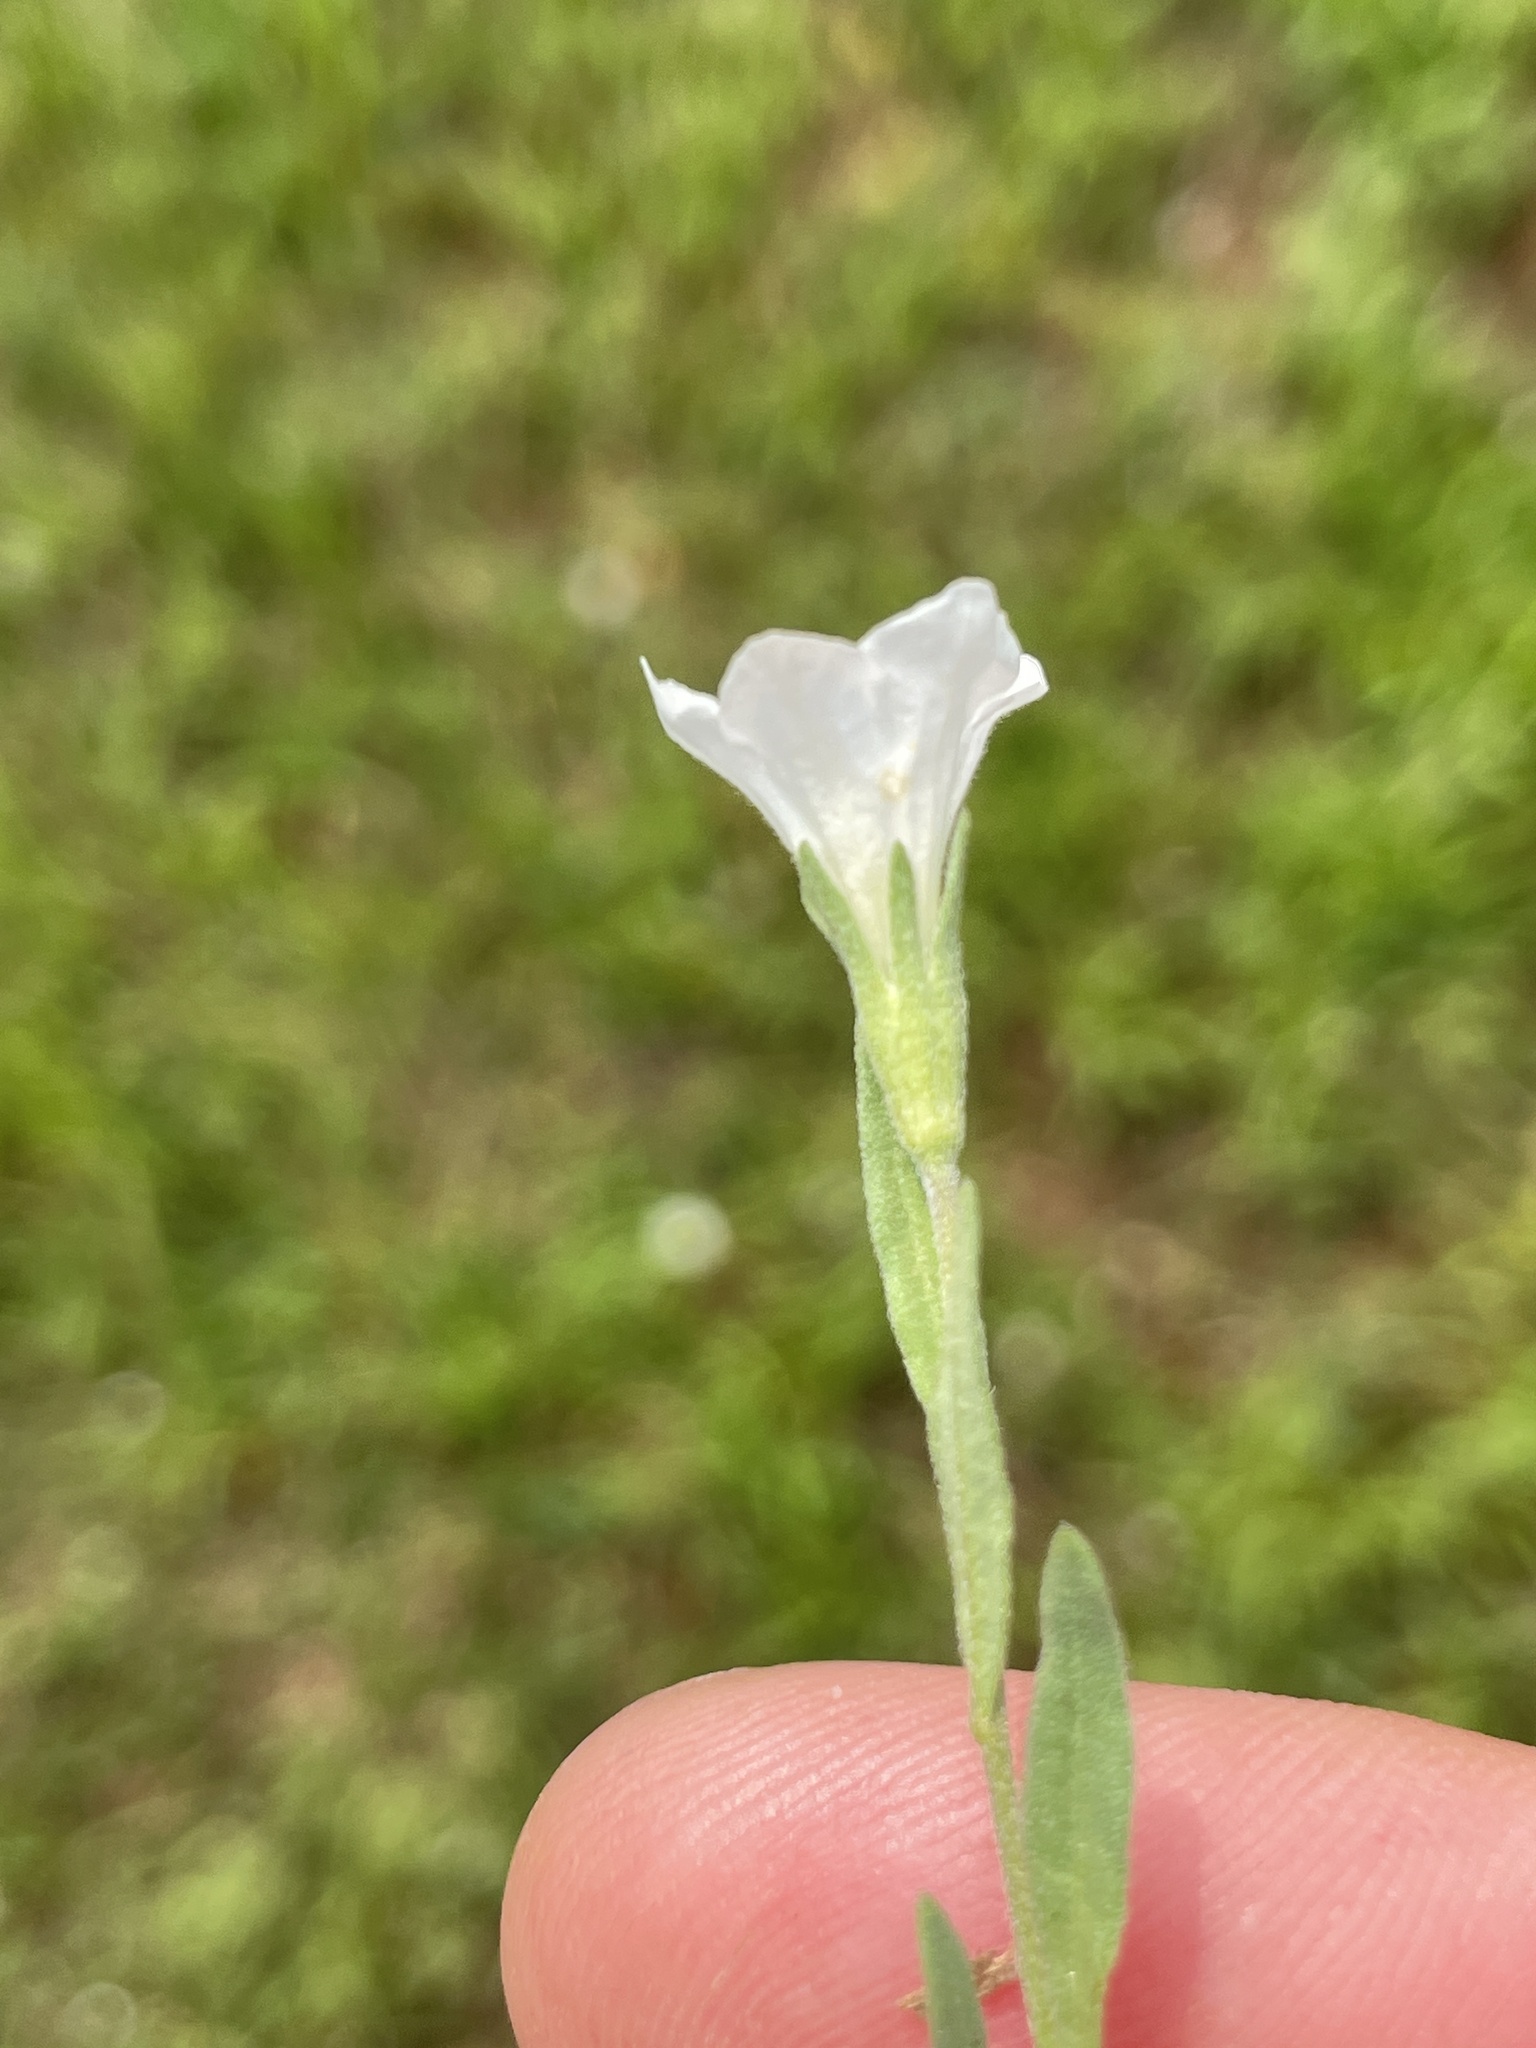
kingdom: Plantae
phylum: Tracheophyta
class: Magnoliopsida
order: Solanales
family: Solanaceae
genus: Salpiglossis
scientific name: Salpiglossis erecta
